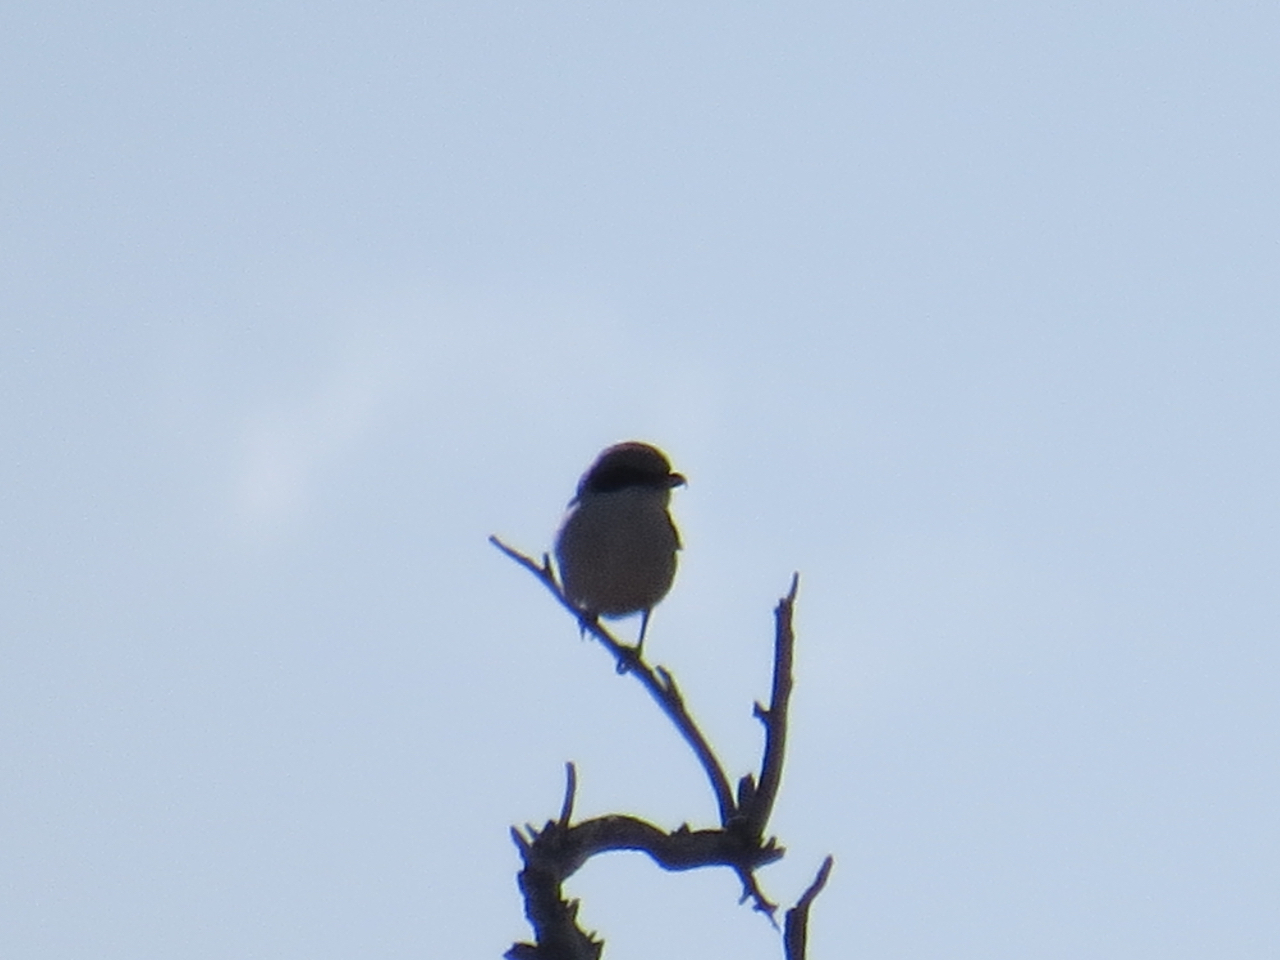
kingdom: Animalia
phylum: Chordata
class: Aves
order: Passeriformes
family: Laniidae
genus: Lanius
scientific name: Lanius ludovicianus
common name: Loggerhead shrike
